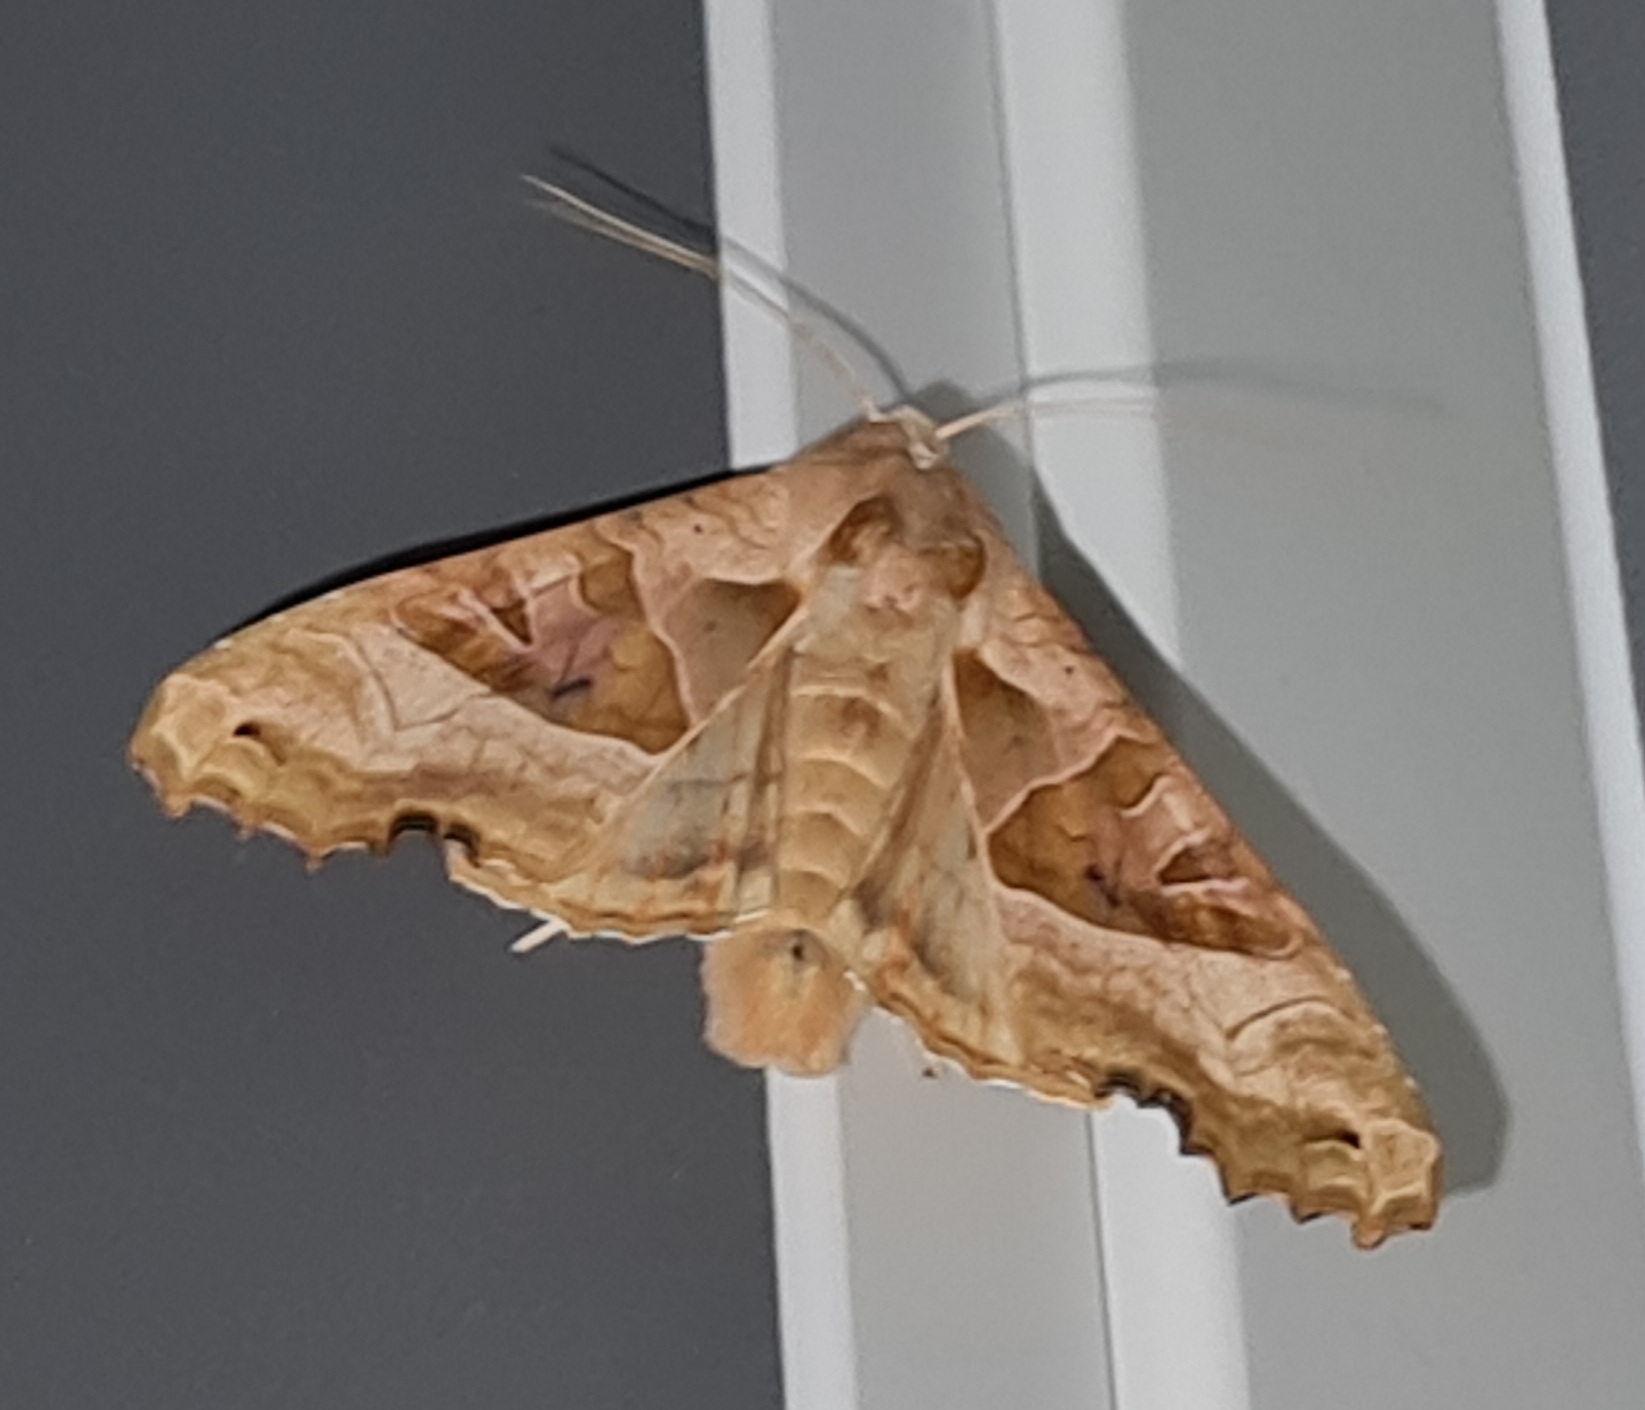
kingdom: Animalia
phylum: Arthropoda
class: Insecta
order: Lepidoptera
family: Noctuidae
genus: Phlogophora
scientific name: Phlogophora meticulosa
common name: Angle shades
